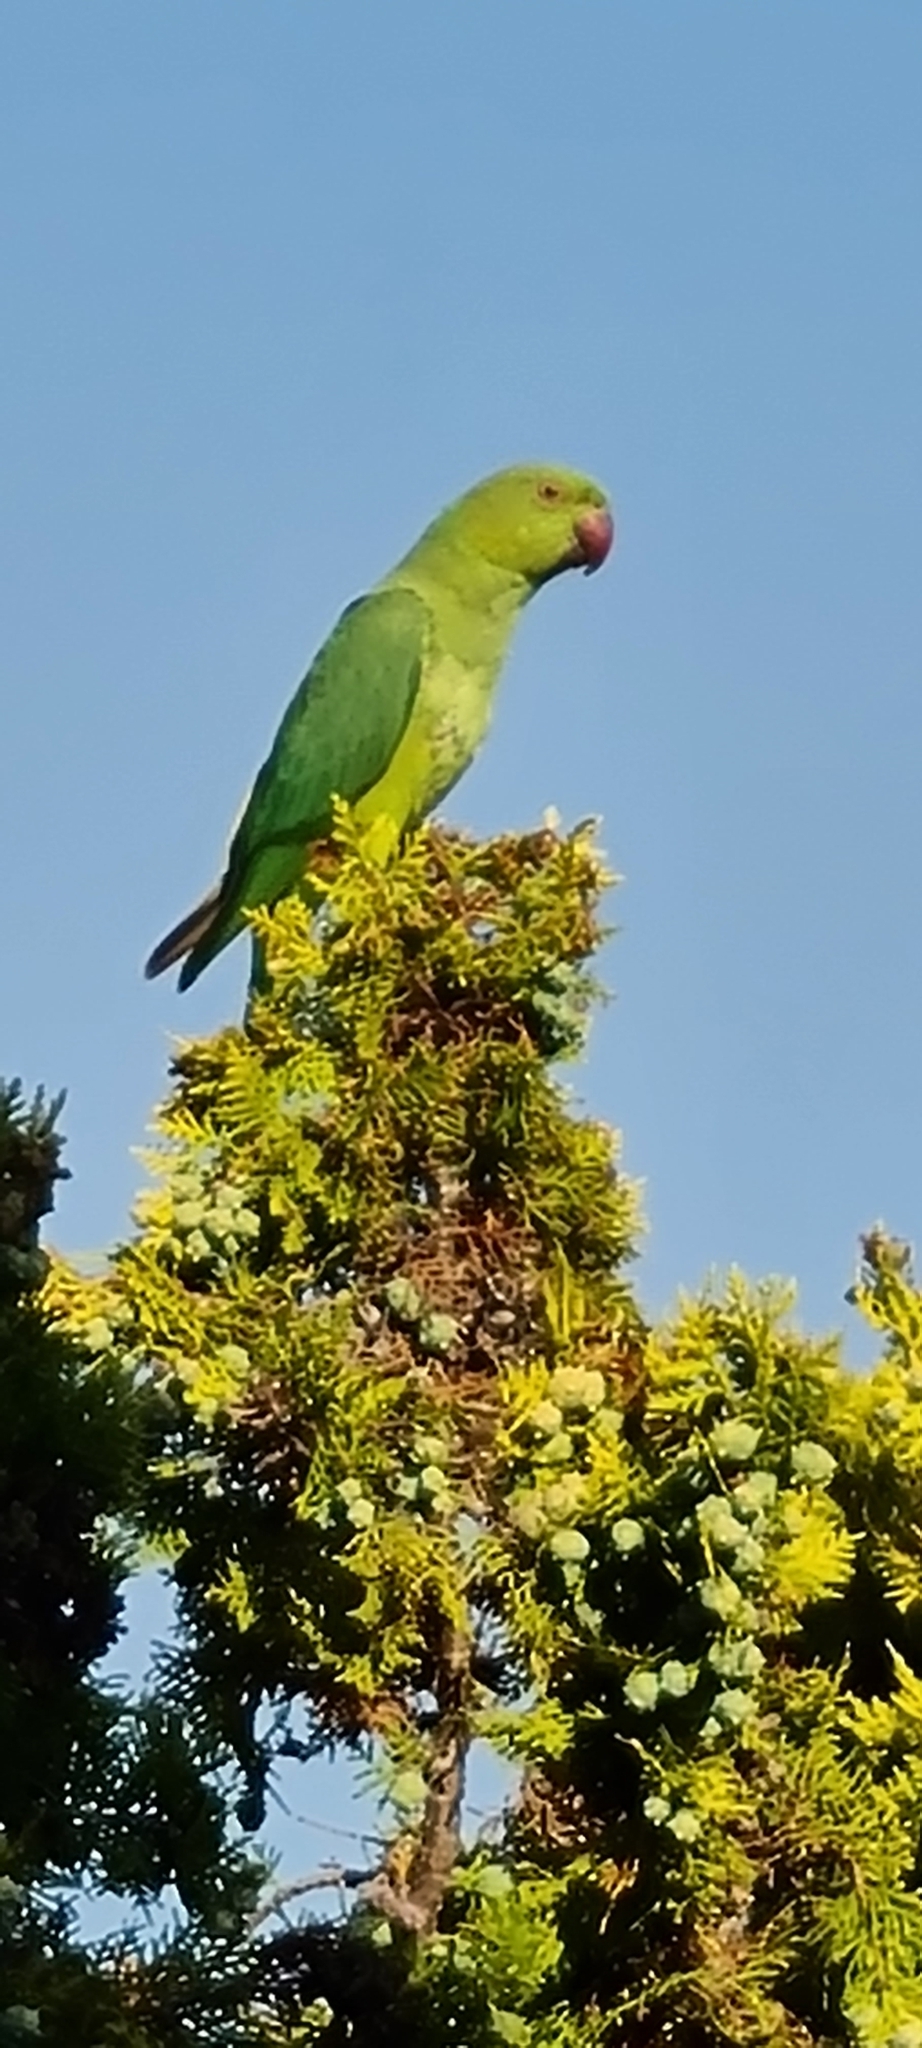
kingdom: Animalia
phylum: Chordata
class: Aves
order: Psittaciformes
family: Psittacidae
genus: Psittacula
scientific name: Psittacula krameri
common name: Rose-ringed parakeet
